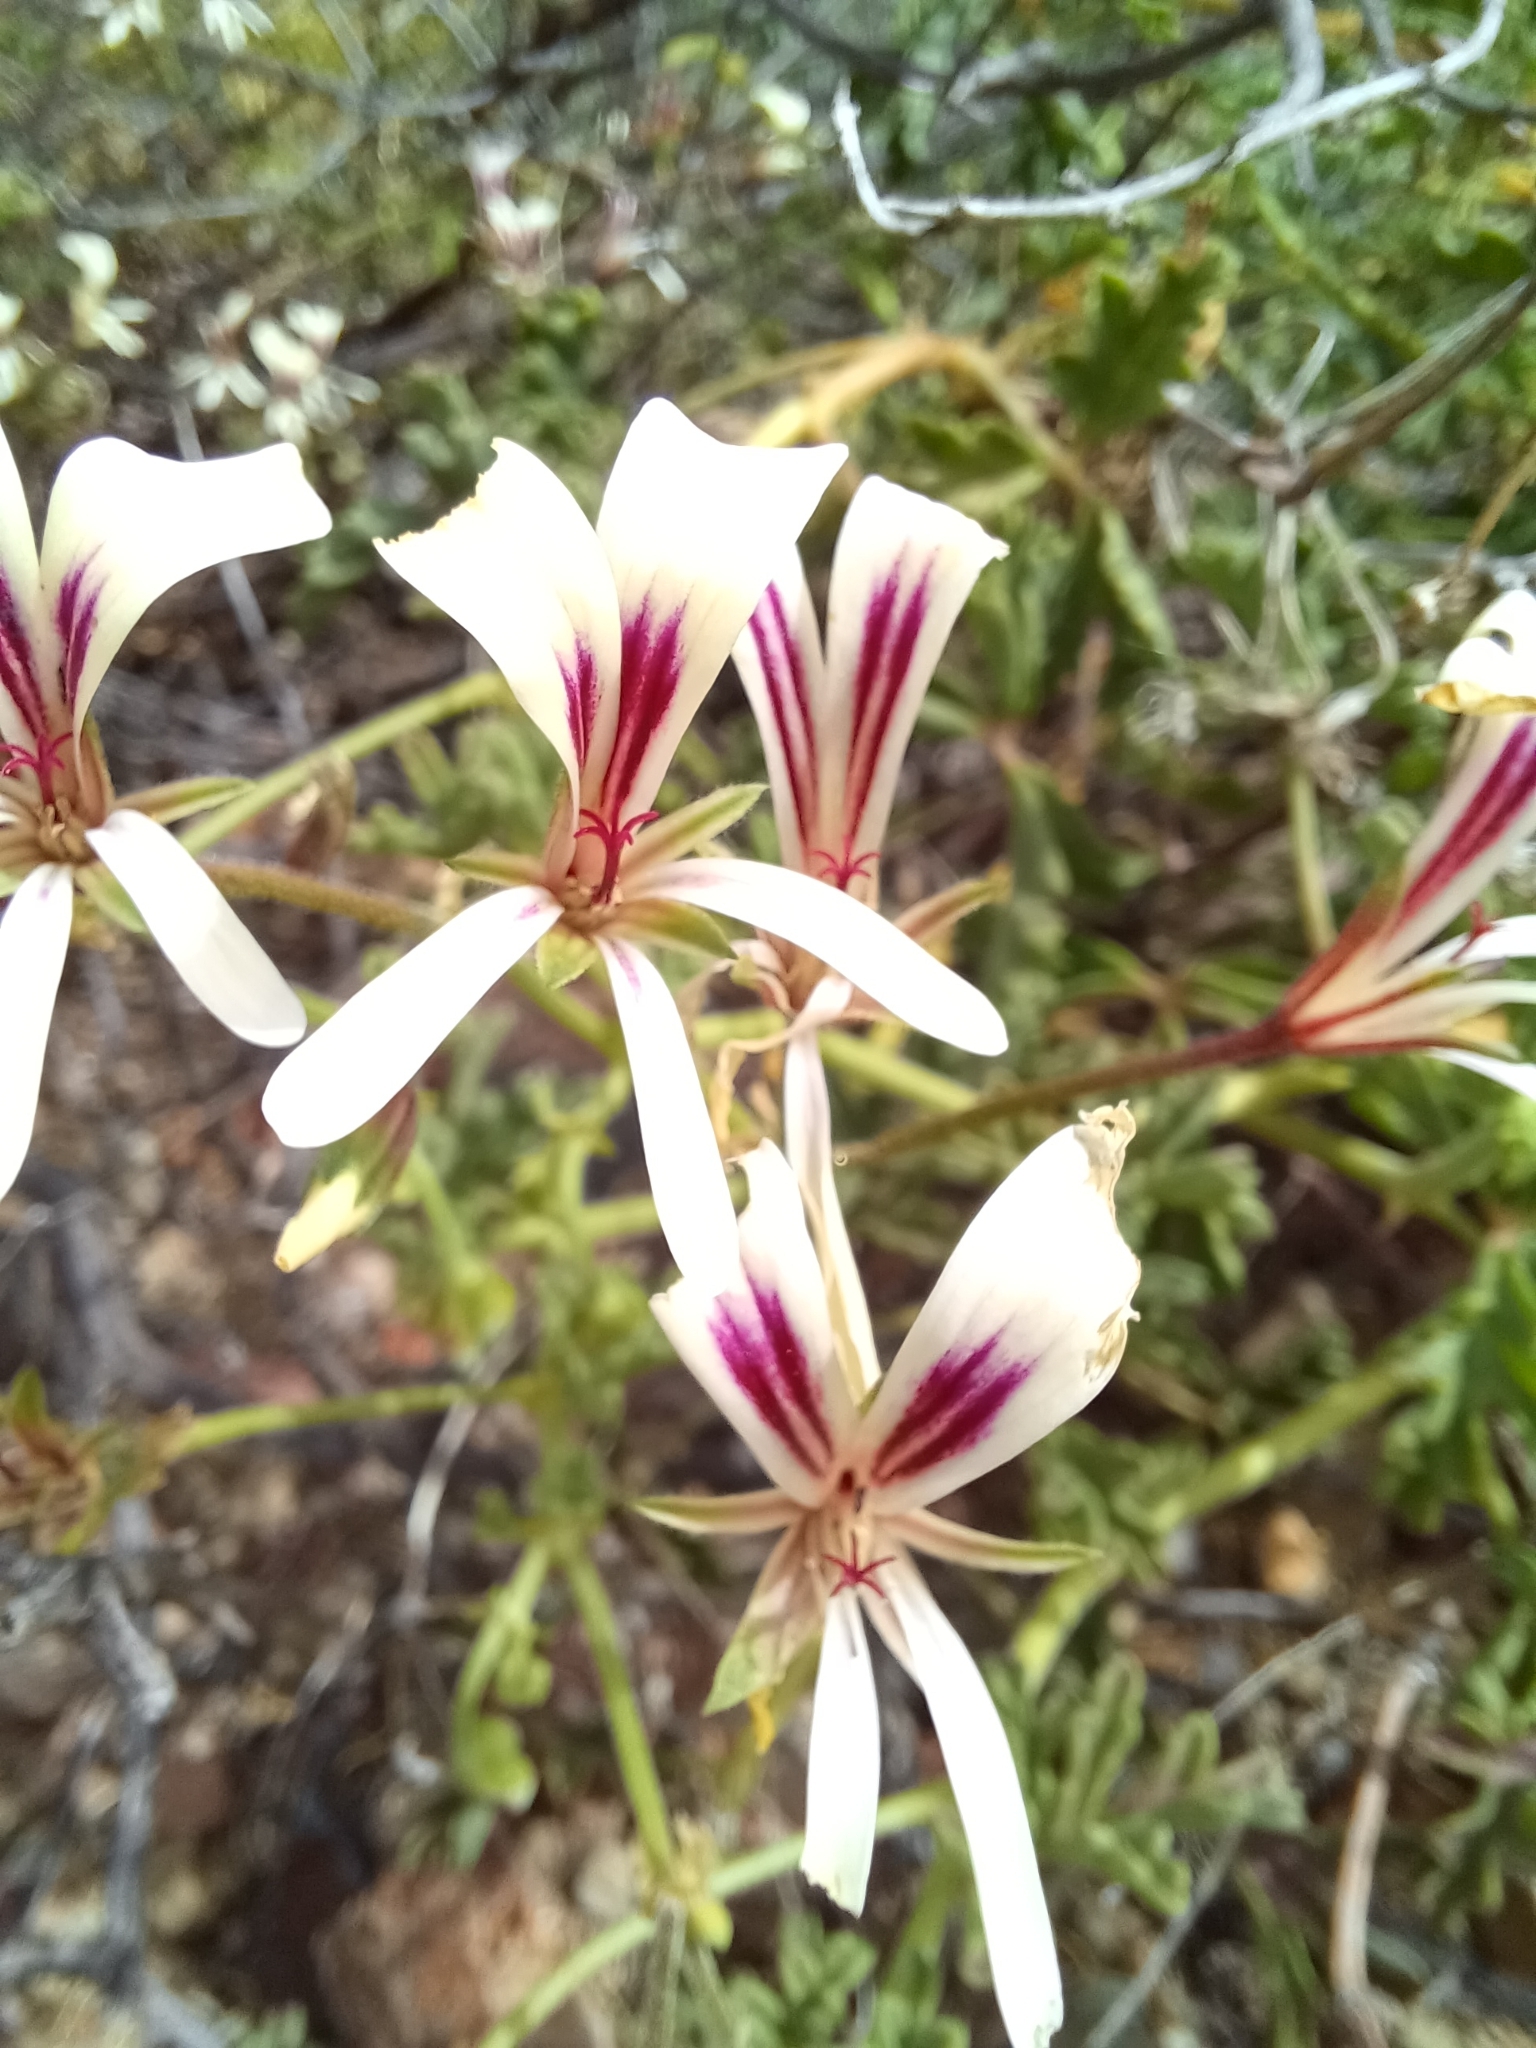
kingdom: Plantae
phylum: Tracheophyta
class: Magnoliopsida
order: Geraniales
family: Geraniaceae
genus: Pelargonium
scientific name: Pelargonium trifidum
